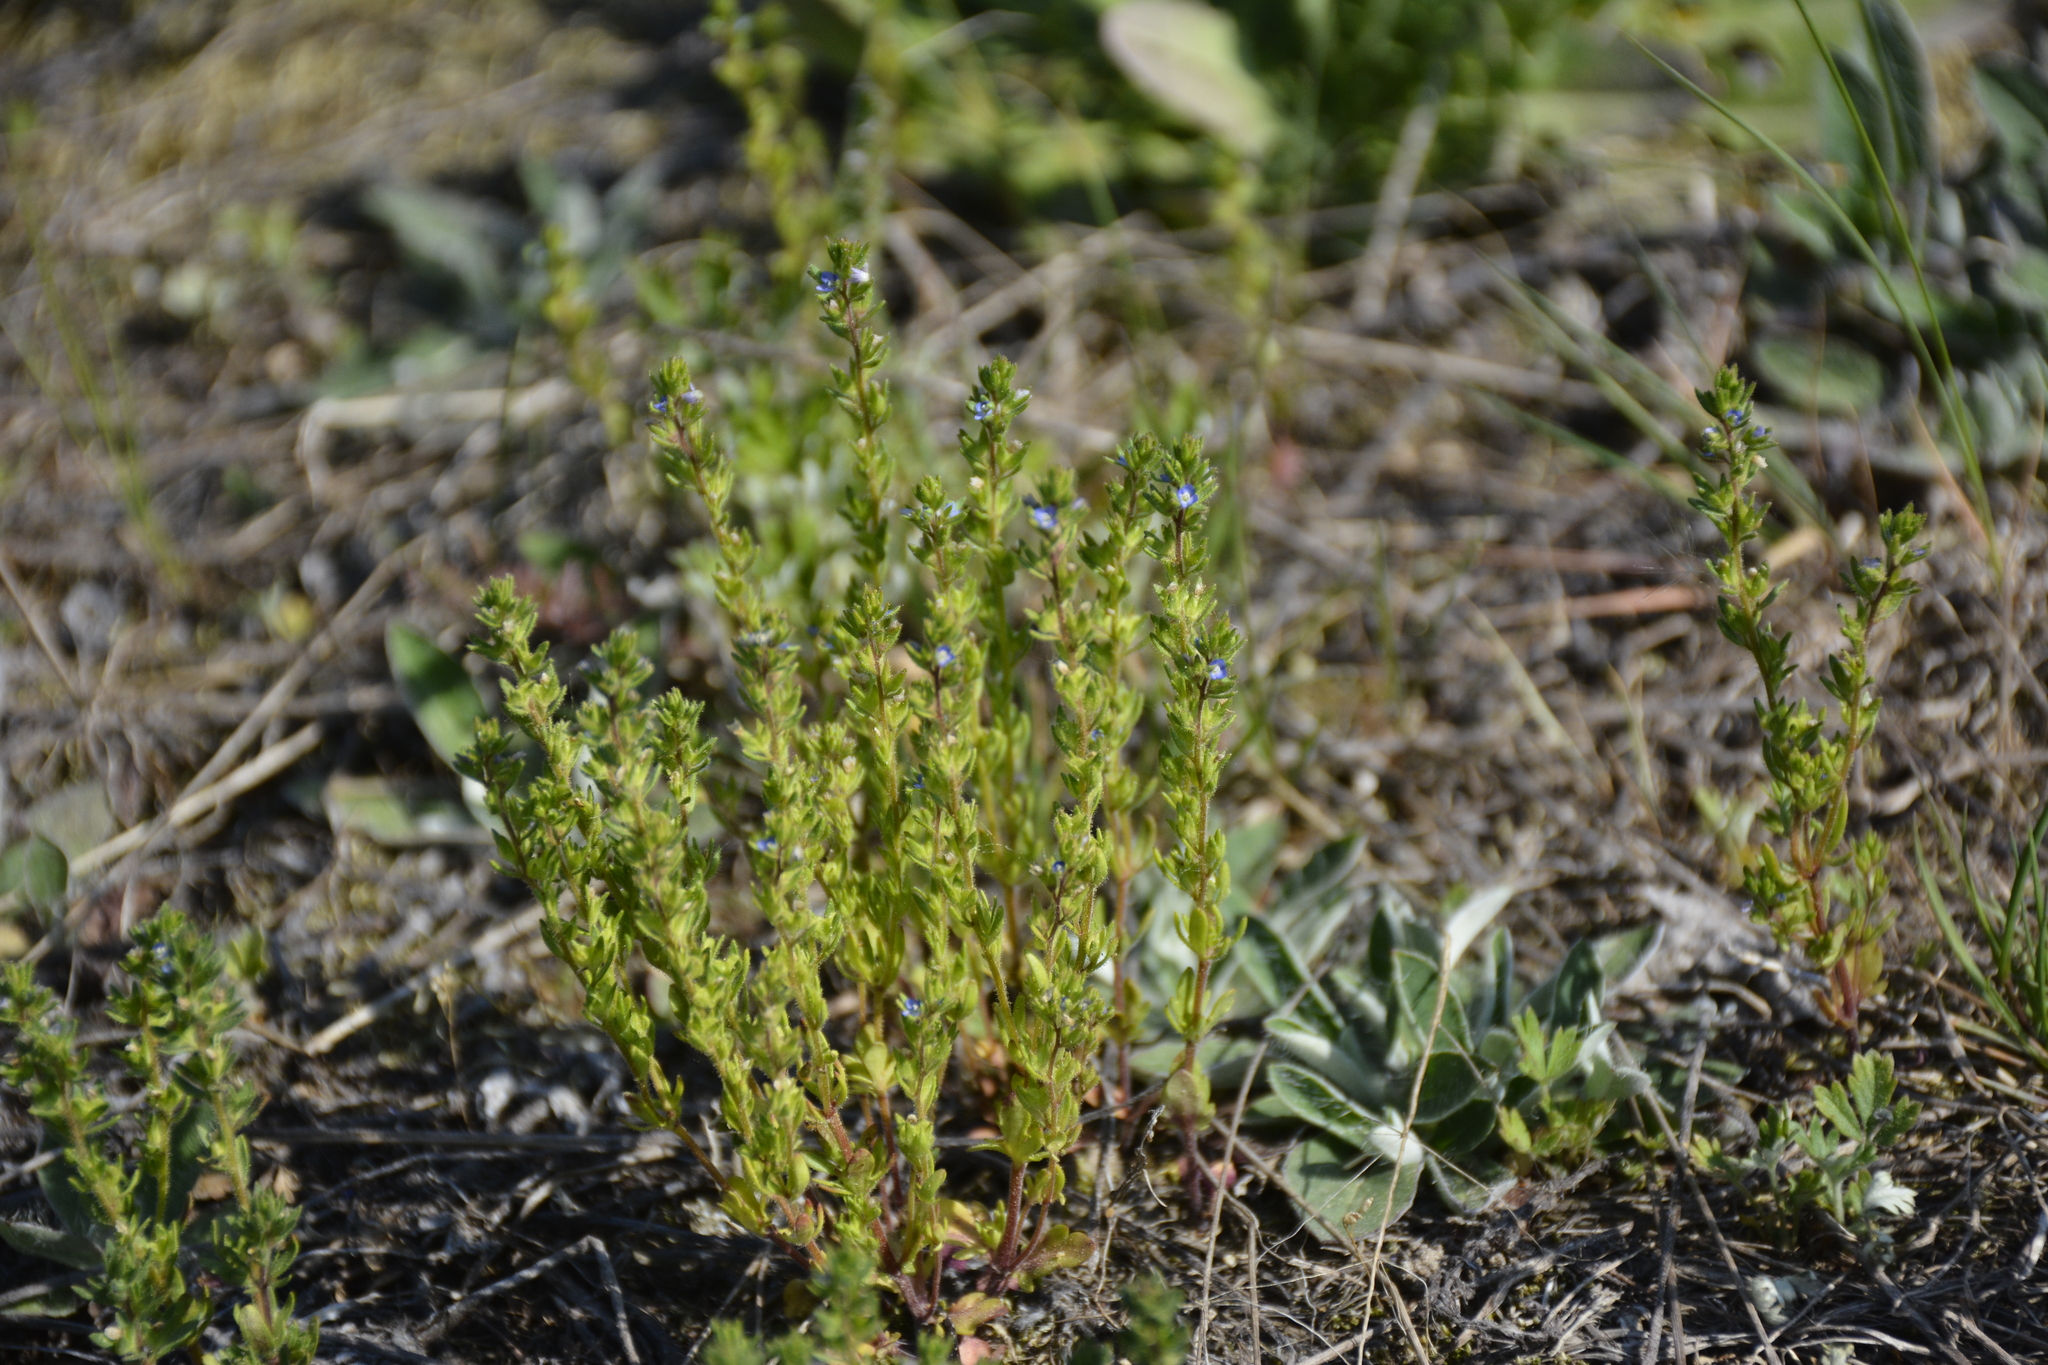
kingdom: Plantae
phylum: Tracheophyta
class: Magnoliopsida
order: Lamiales
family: Plantaginaceae
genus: Veronica
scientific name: Veronica verna
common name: Spring speedwell
